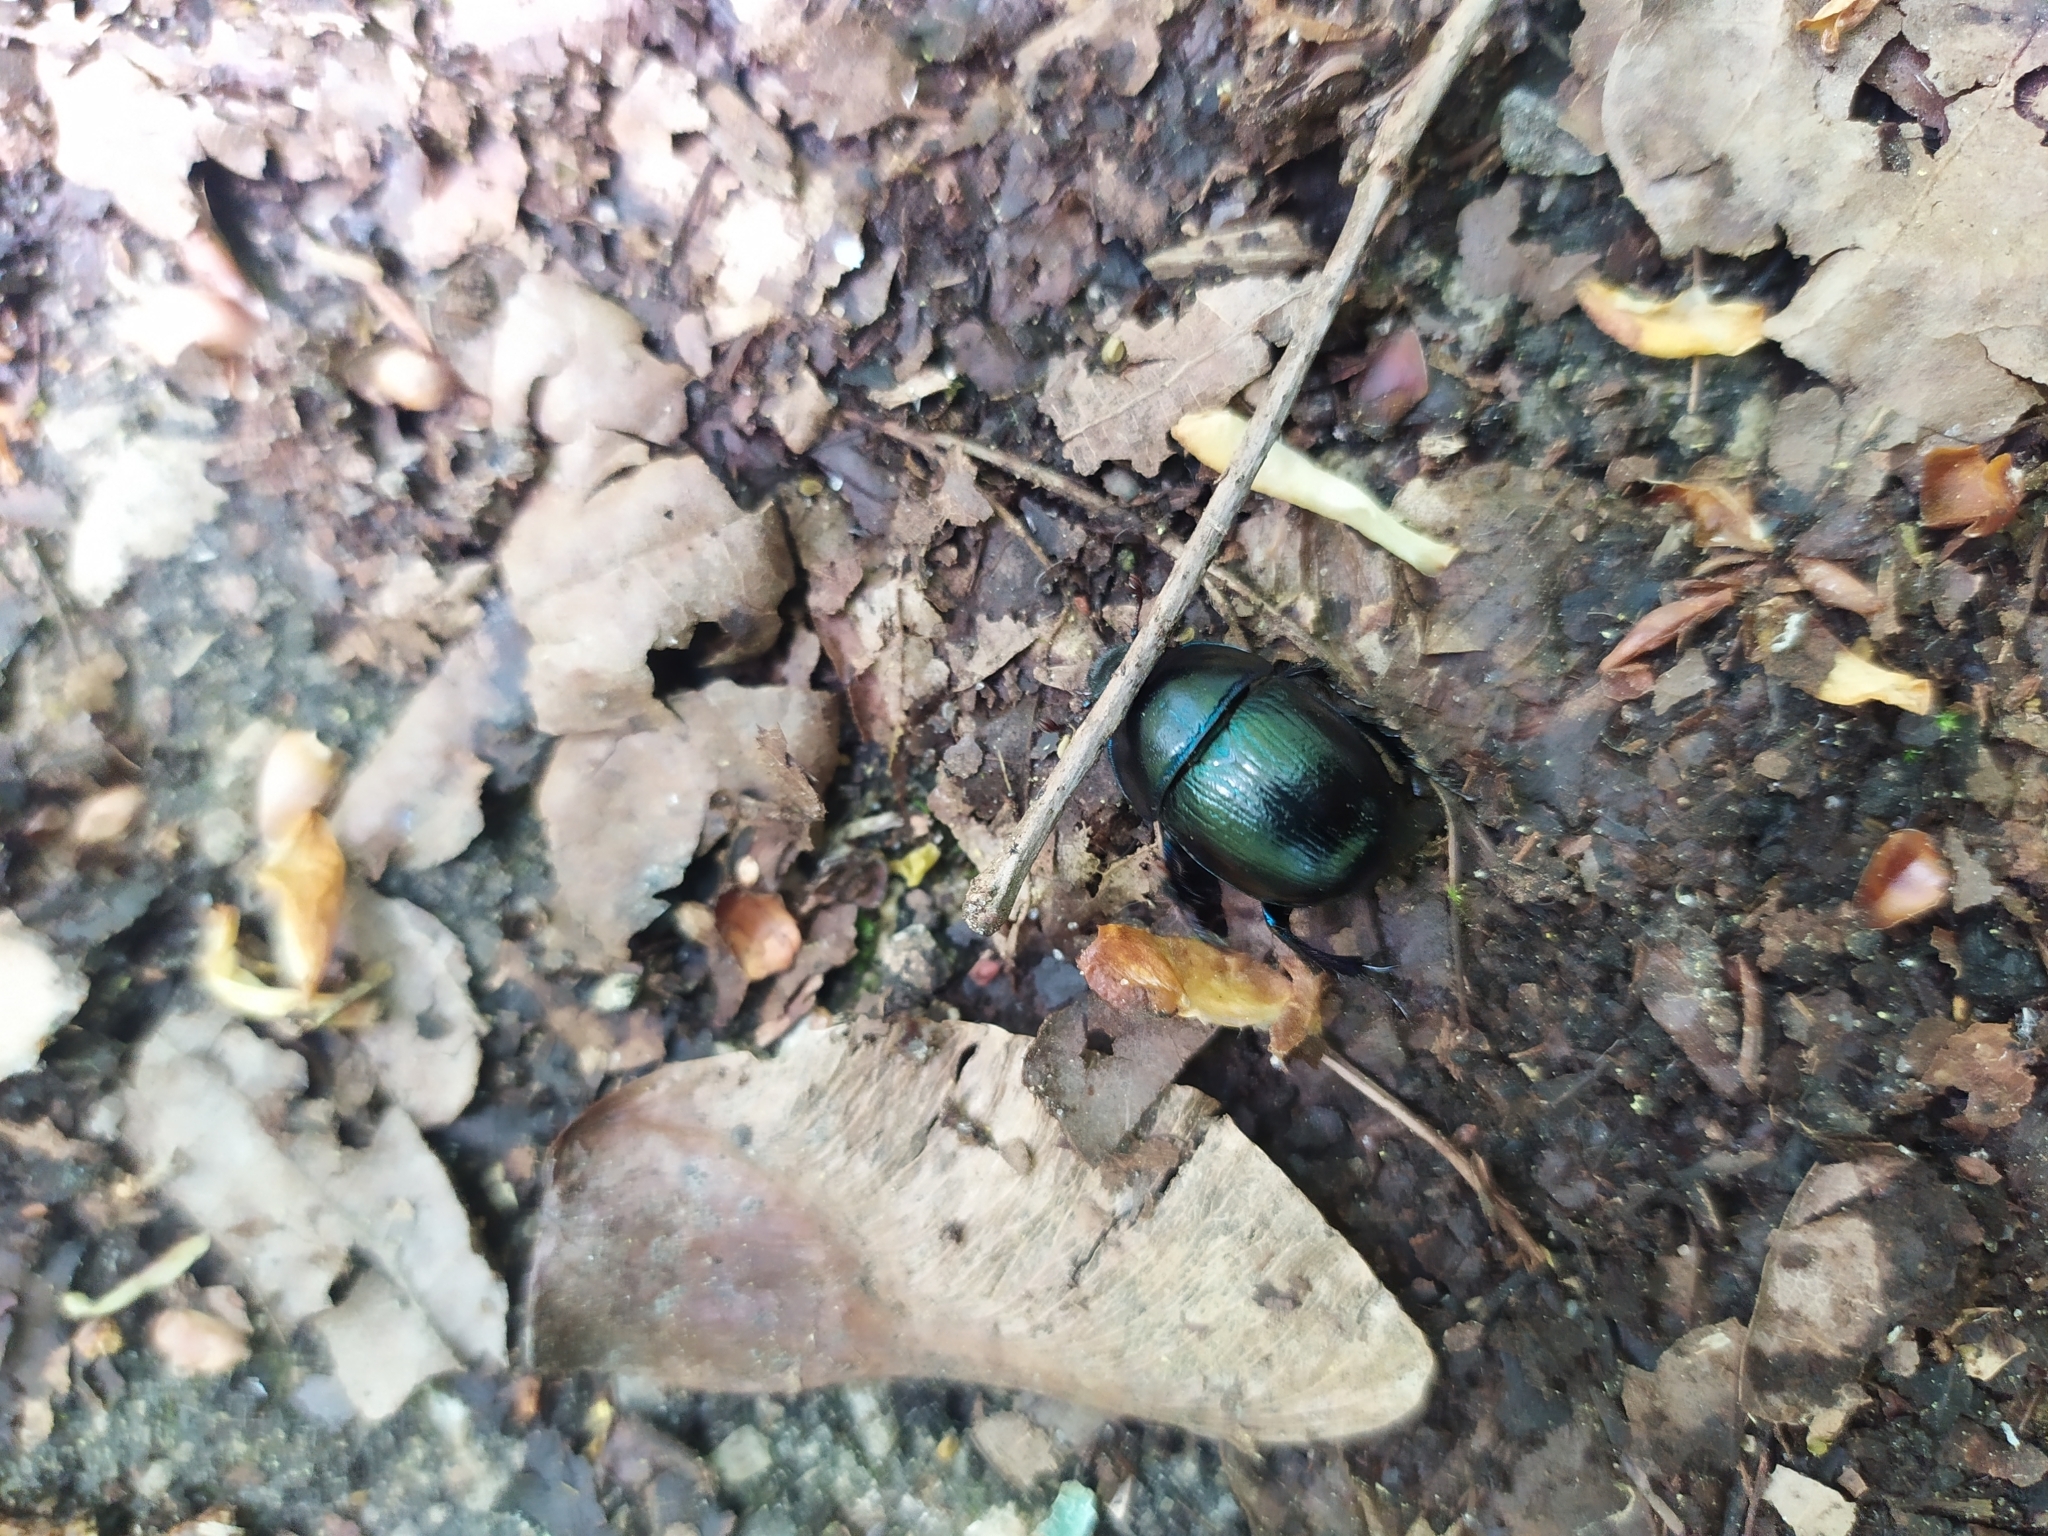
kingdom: Animalia
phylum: Arthropoda
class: Insecta
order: Coleoptera
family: Geotrupidae
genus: Anoplotrupes
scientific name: Anoplotrupes stercorosus
